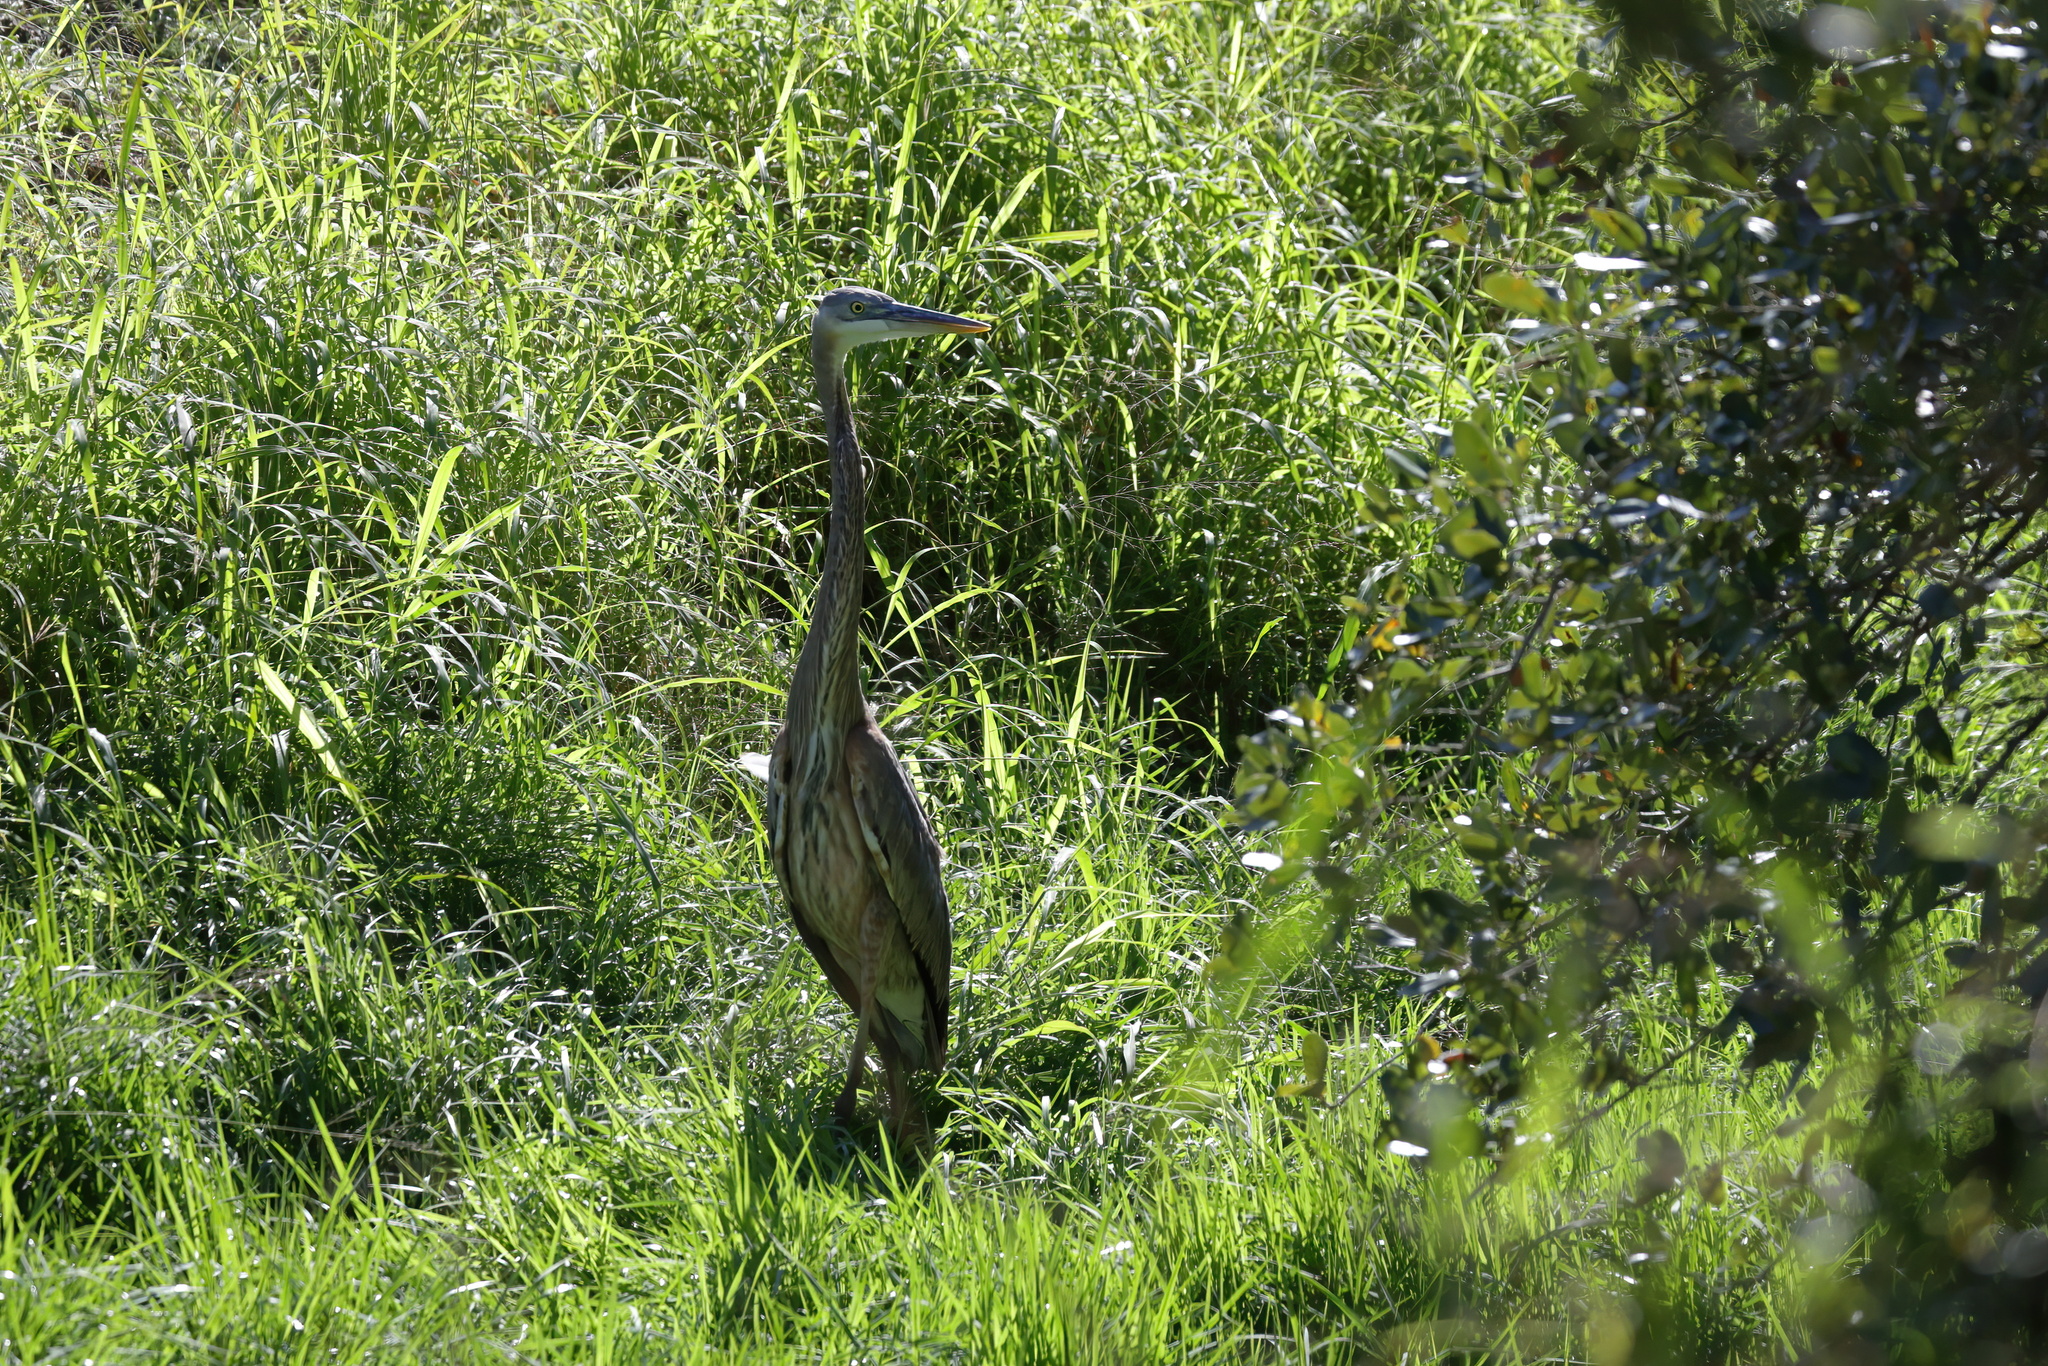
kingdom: Animalia
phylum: Chordata
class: Aves
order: Pelecaniformes
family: Ardeidae
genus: Ardea
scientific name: Ardea herodias
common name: Great blue heron
